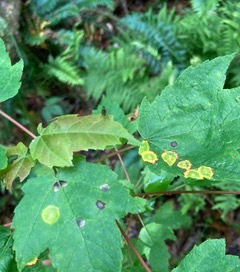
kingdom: Animalia
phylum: Arthropoda
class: Insecta
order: Diptera
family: Cecidomyiidae
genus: Acericecis
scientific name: Acericecis ocellaris
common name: Ocellate gall midge
